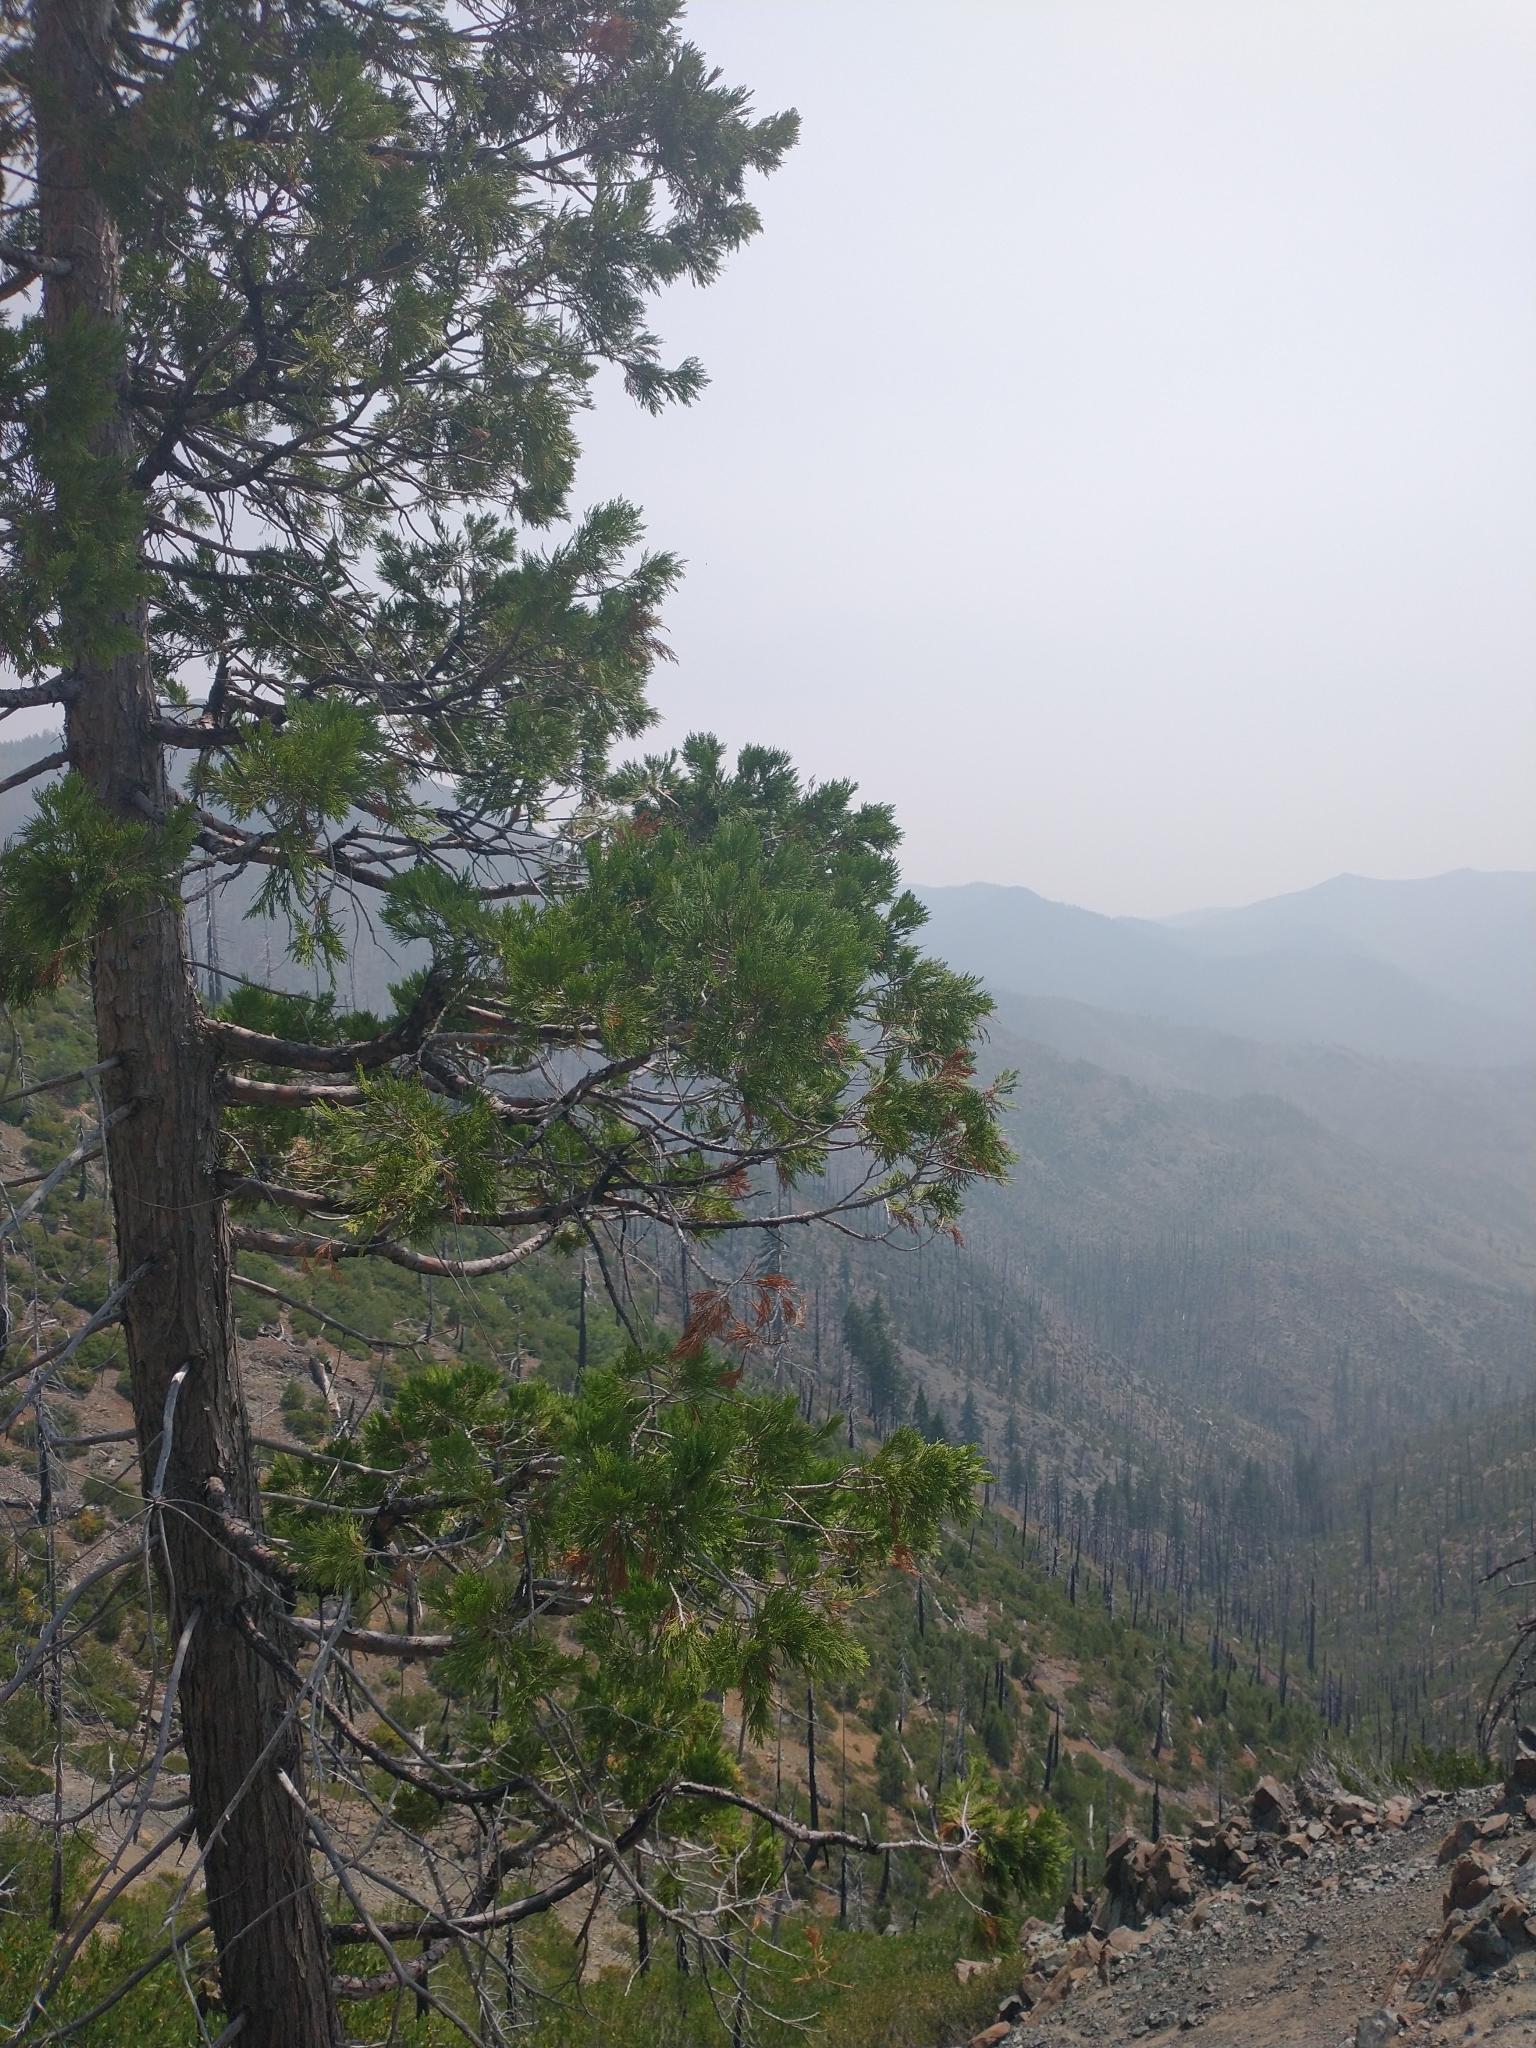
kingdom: Plantae
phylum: Tracheophyta
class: Pinopsida
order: Pinales
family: Cupressaceae
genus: Calocedrus
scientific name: Calocedrus decurrens
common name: Californian incense-cedar
